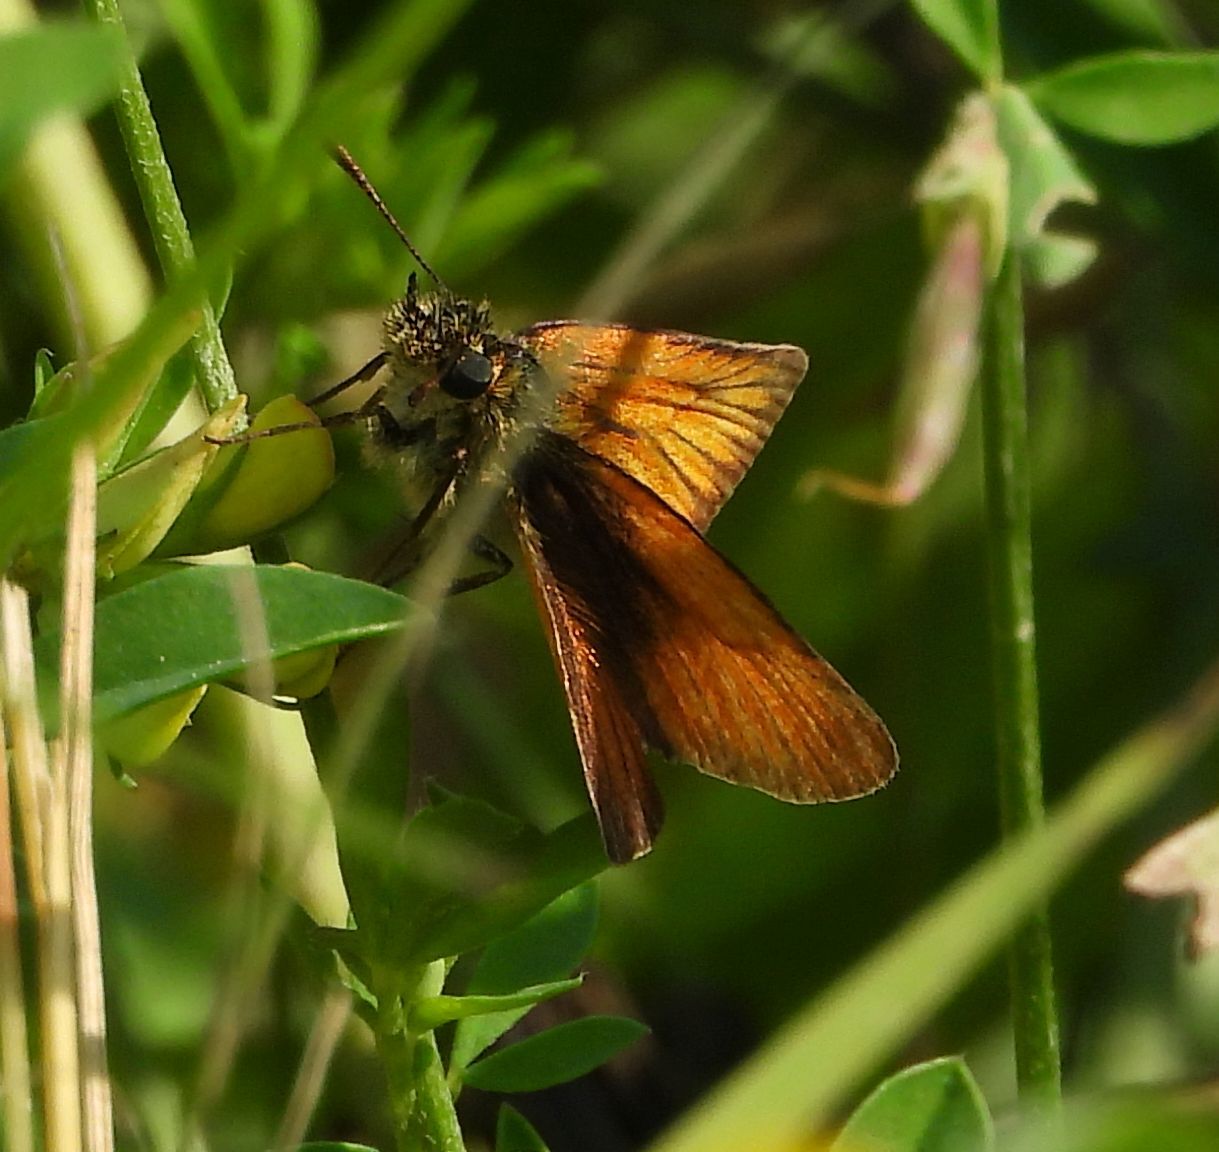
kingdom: Animalia
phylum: Arthropoda
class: Insecta
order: Lepidoptera
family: Hesperiidae
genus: Thymelicus
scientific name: Thymelicus lineola
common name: Essex skipper
